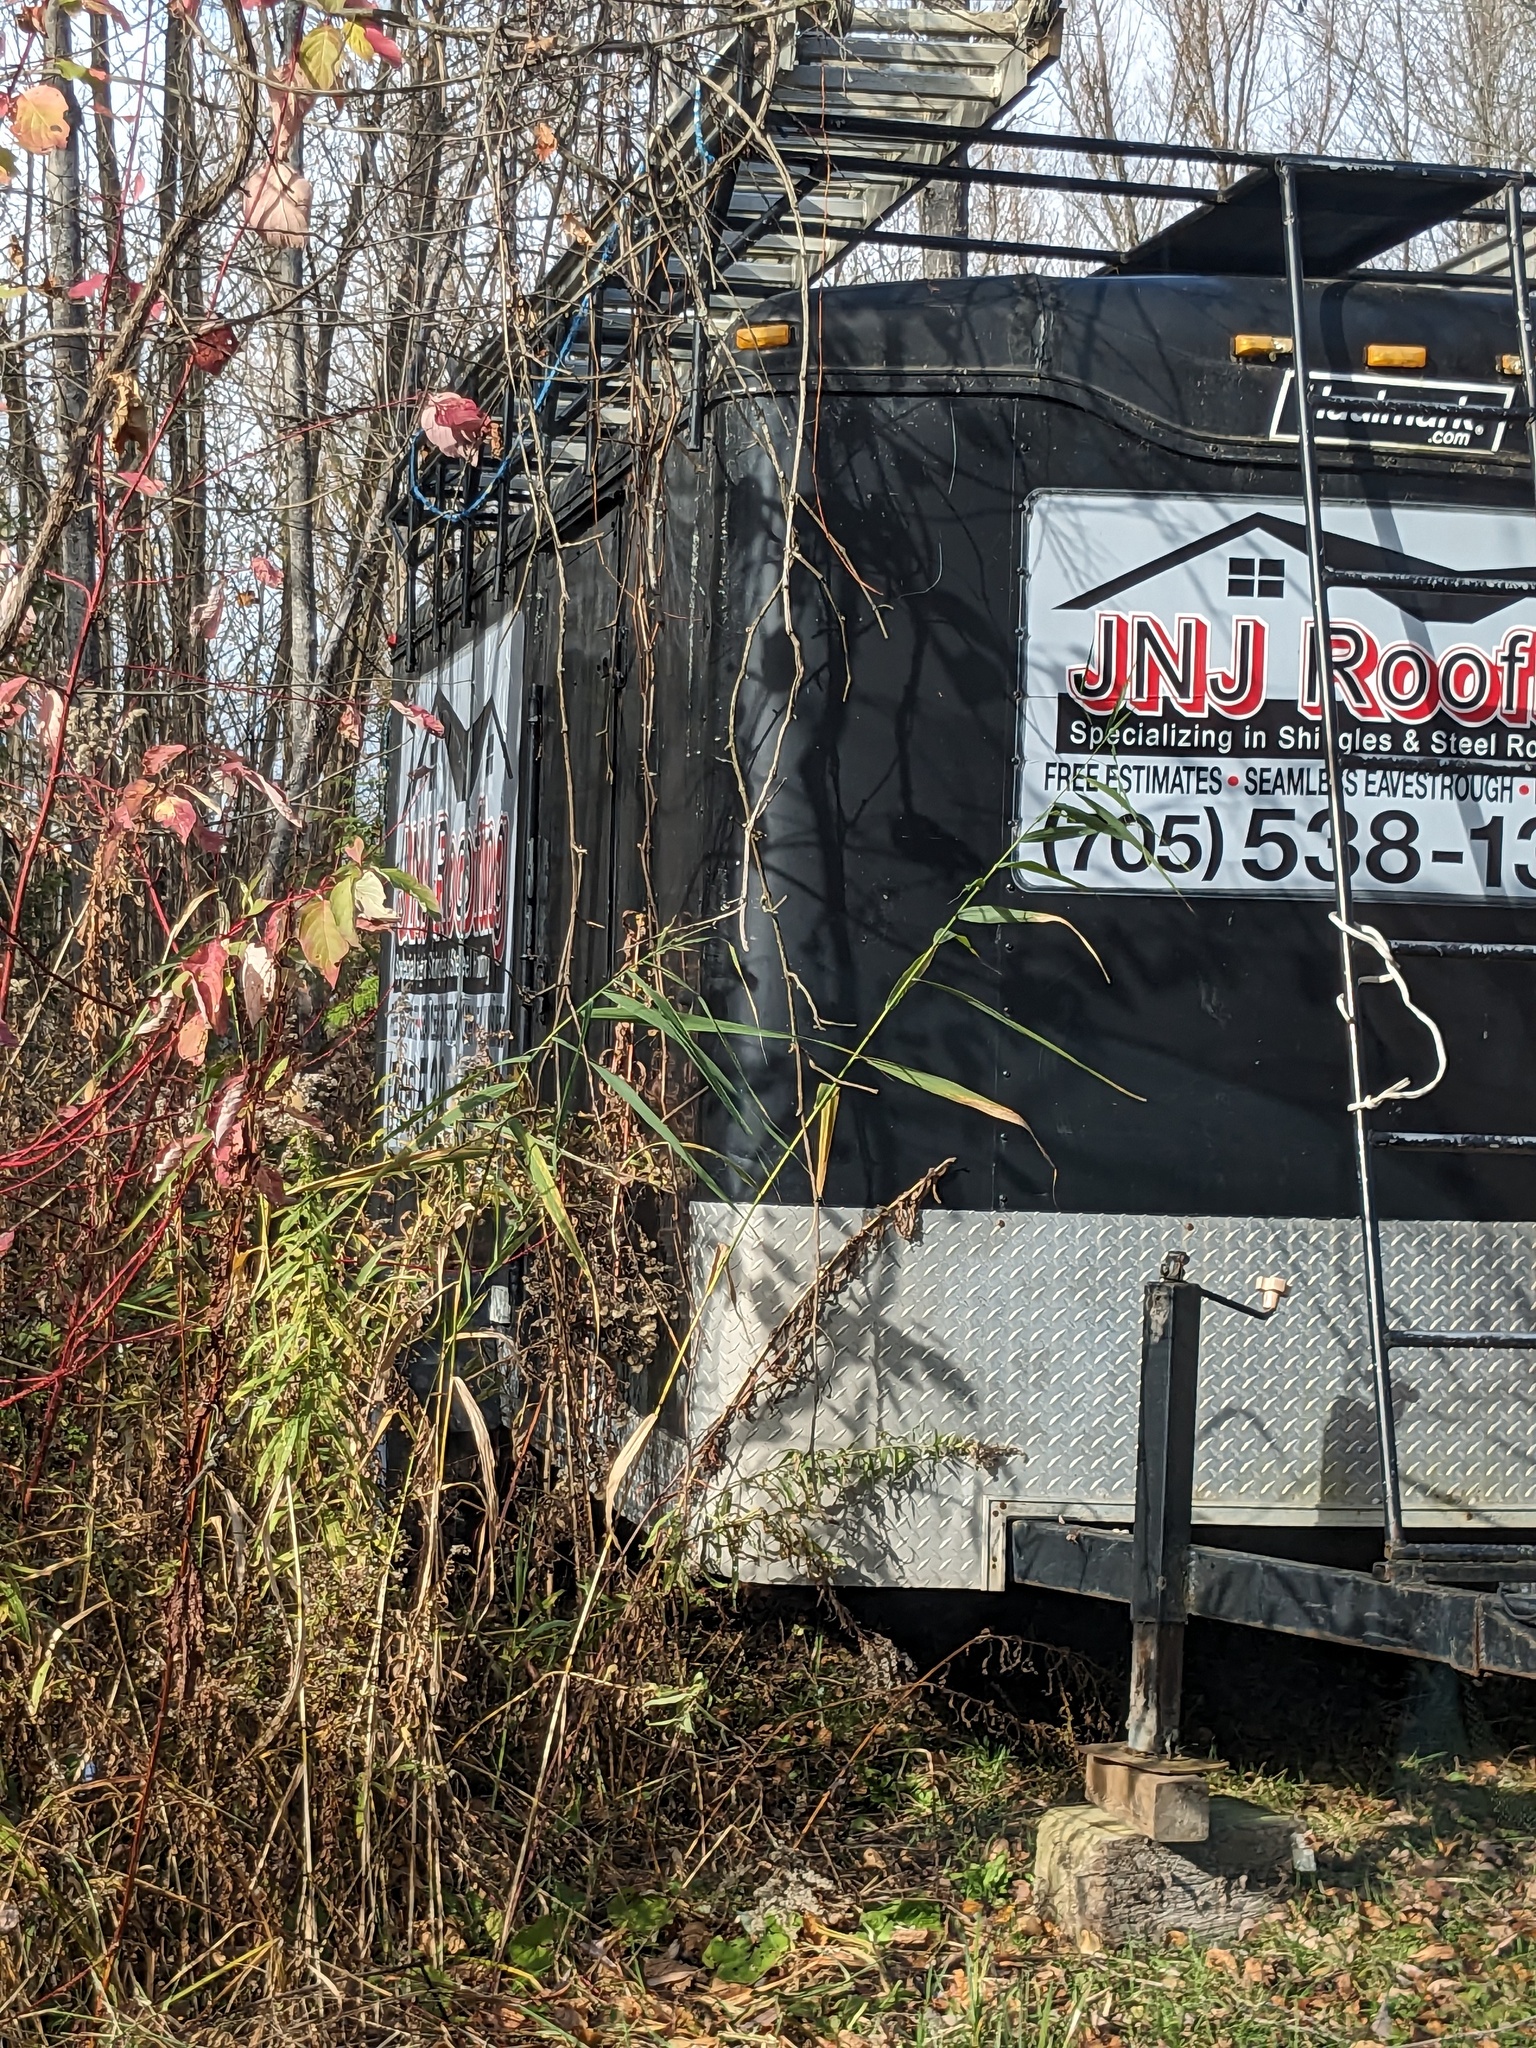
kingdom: Plantae
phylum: Tracheophyta
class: Liliopsida
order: Poales
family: Poaceae
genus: Phragmites
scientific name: Phragmites australis
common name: Common reed
